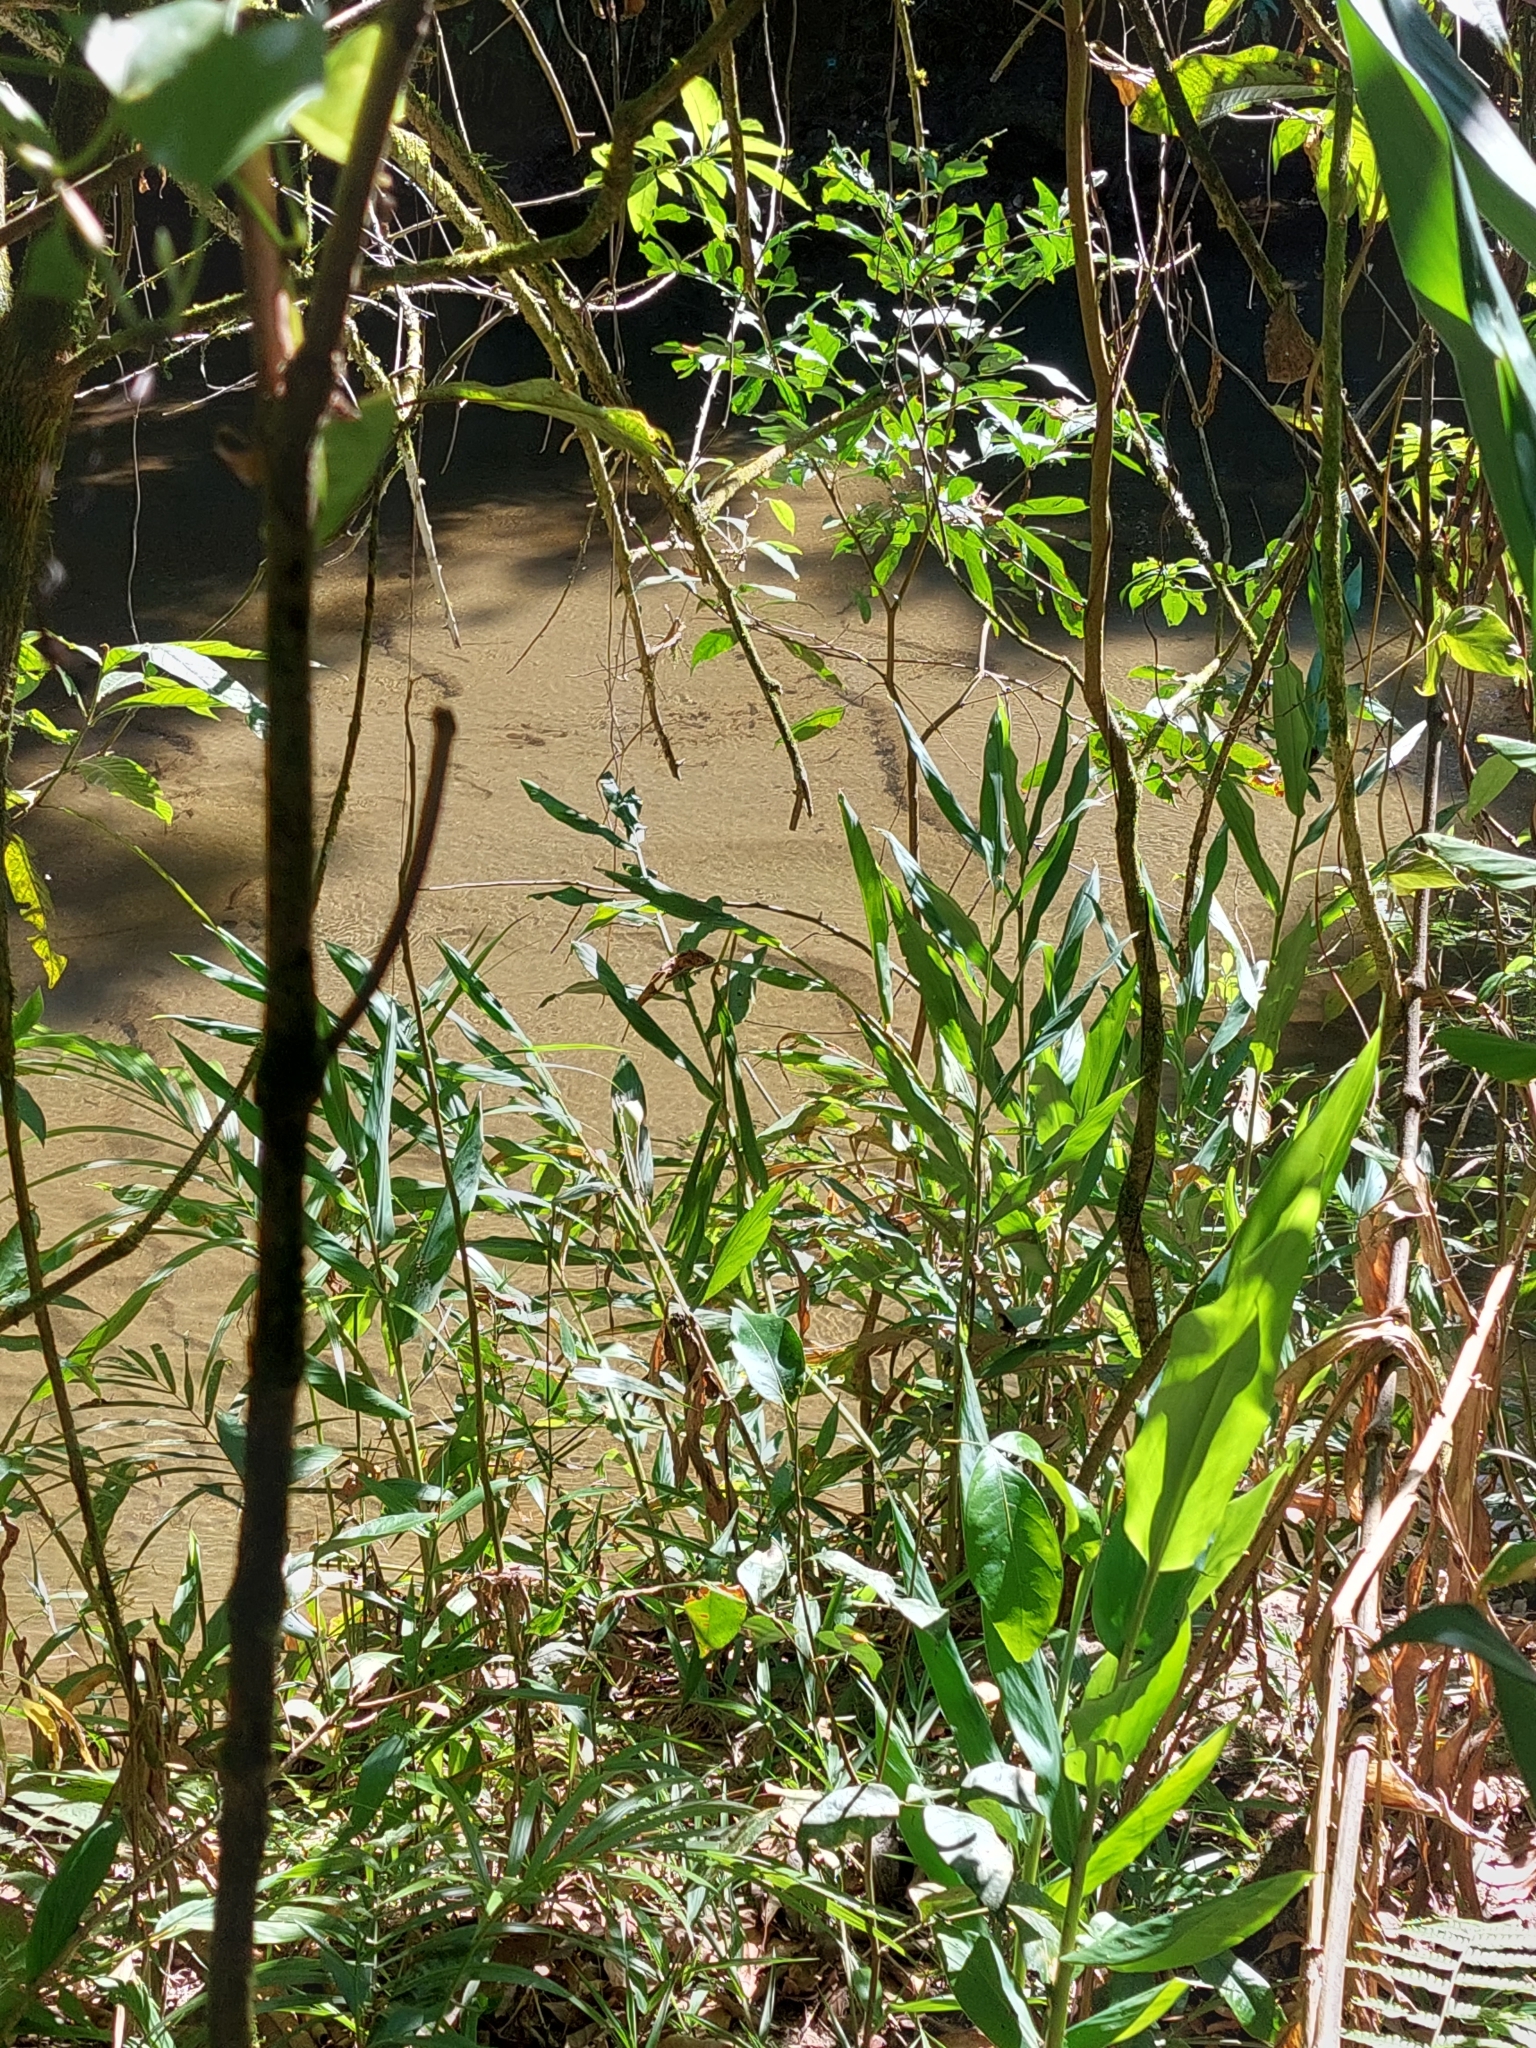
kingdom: Plantae
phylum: Tracheophyta
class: Liliopsida
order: Zingiberales
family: Zingiberaceae
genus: Hedychium
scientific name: Hedychium coronarium
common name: White garland-lily
